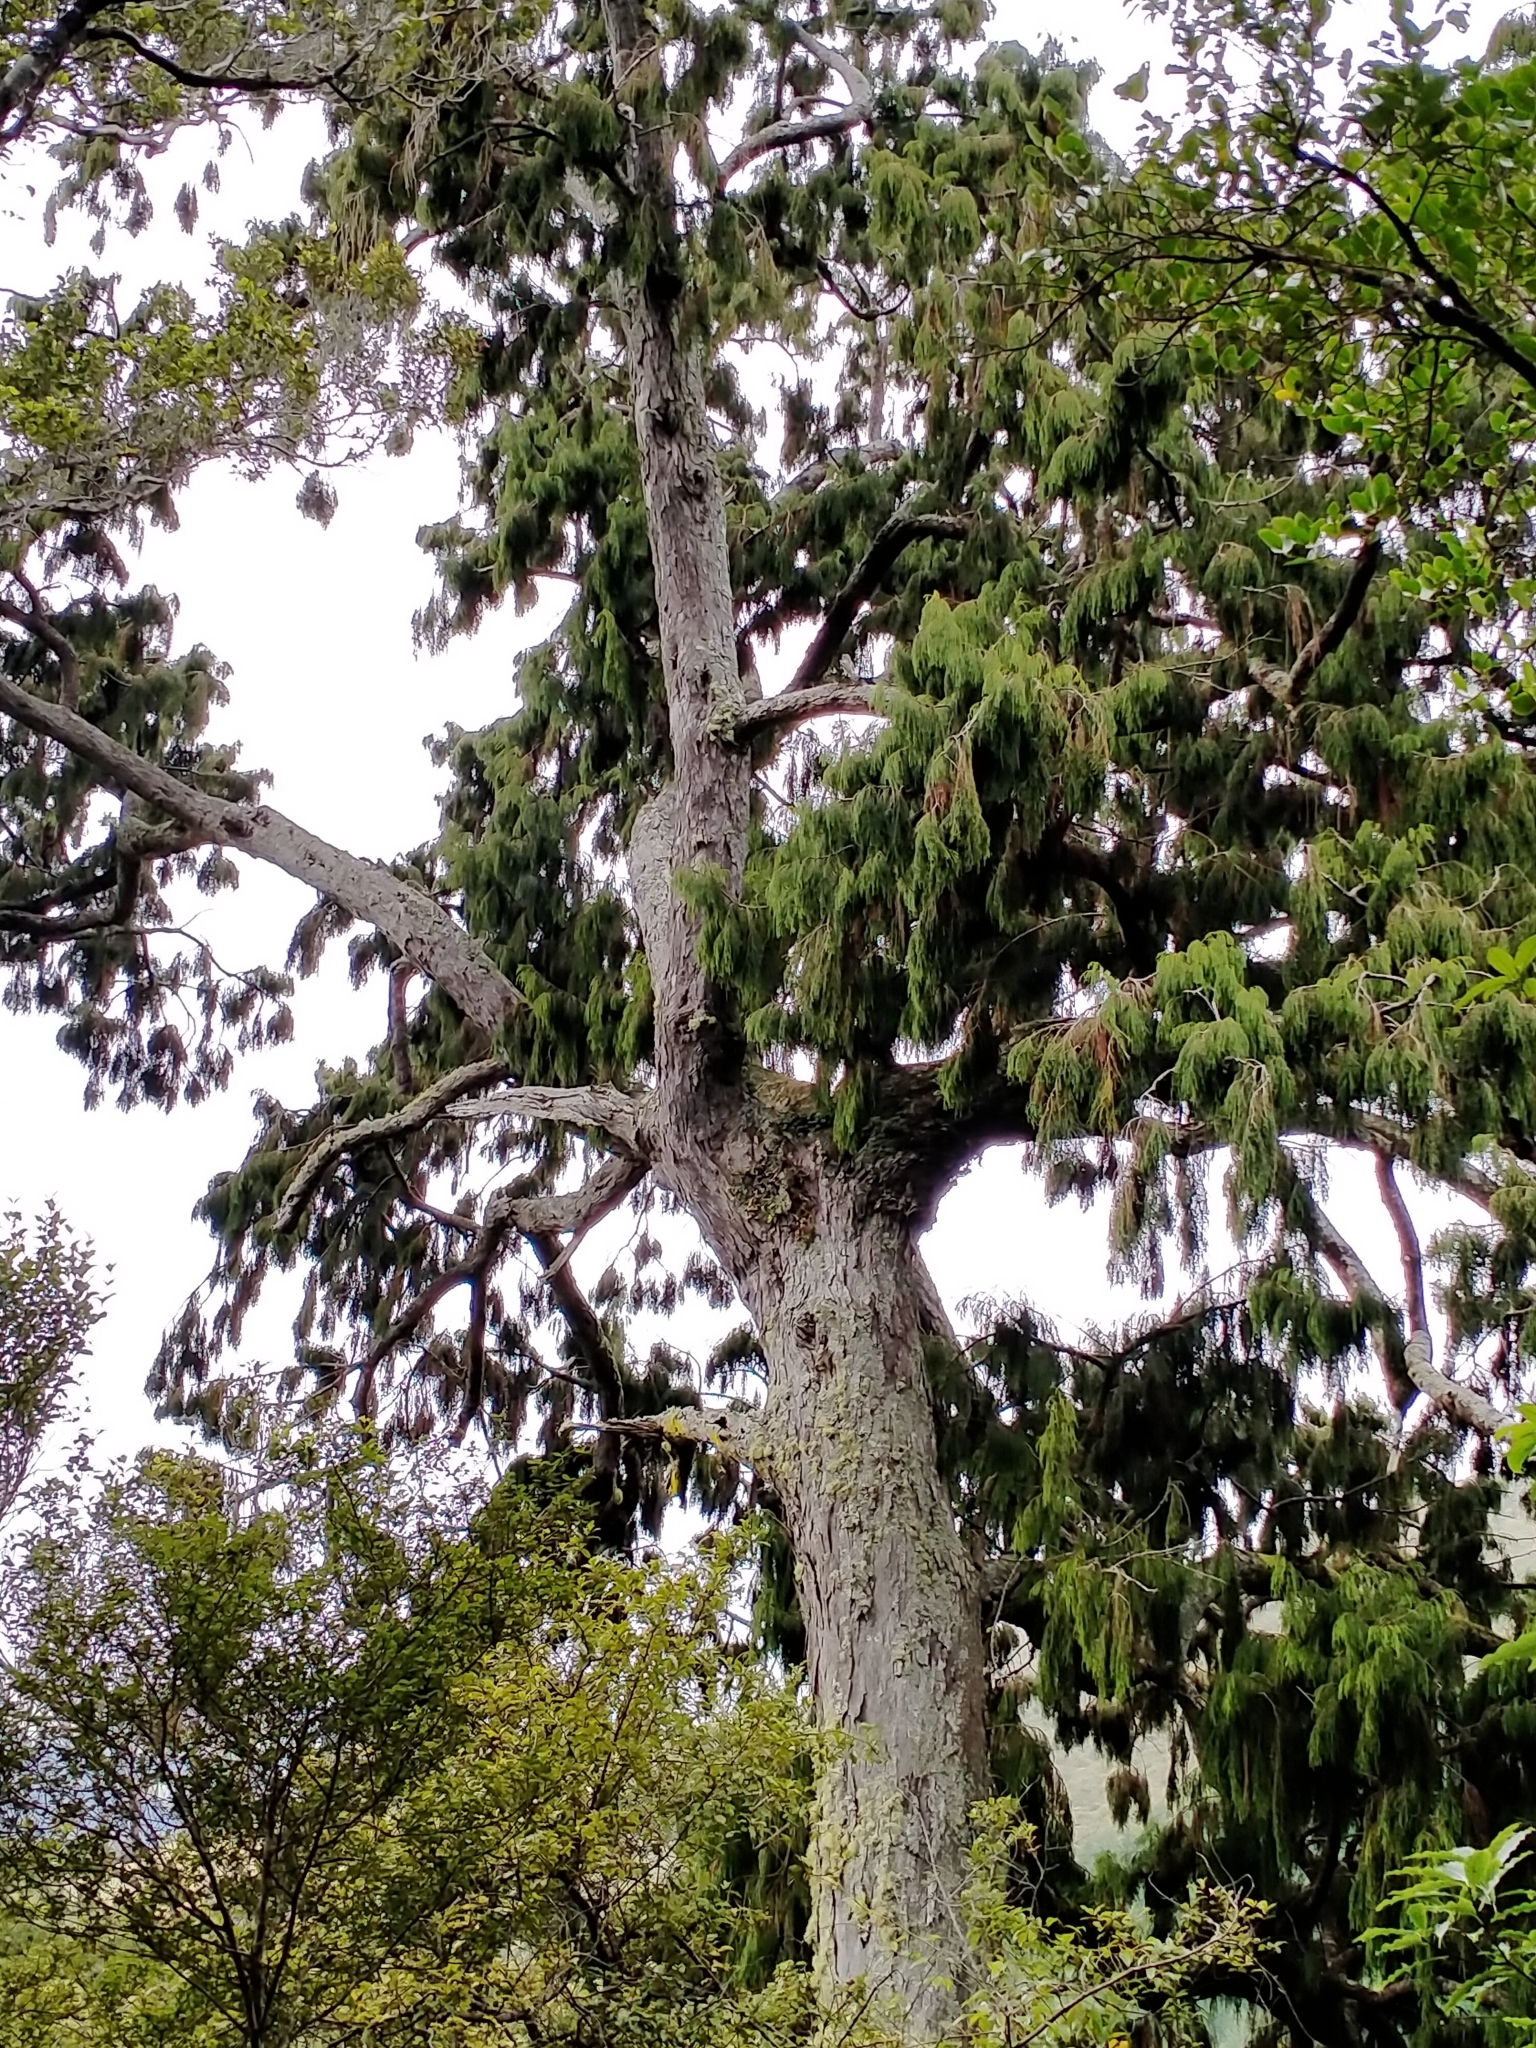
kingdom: Plantae
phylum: Tracheophyta
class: Pinopsida
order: Pinales
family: Podocarpaceae
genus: Dacrydium
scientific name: Dacrydium cupressinum
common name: Red pine
